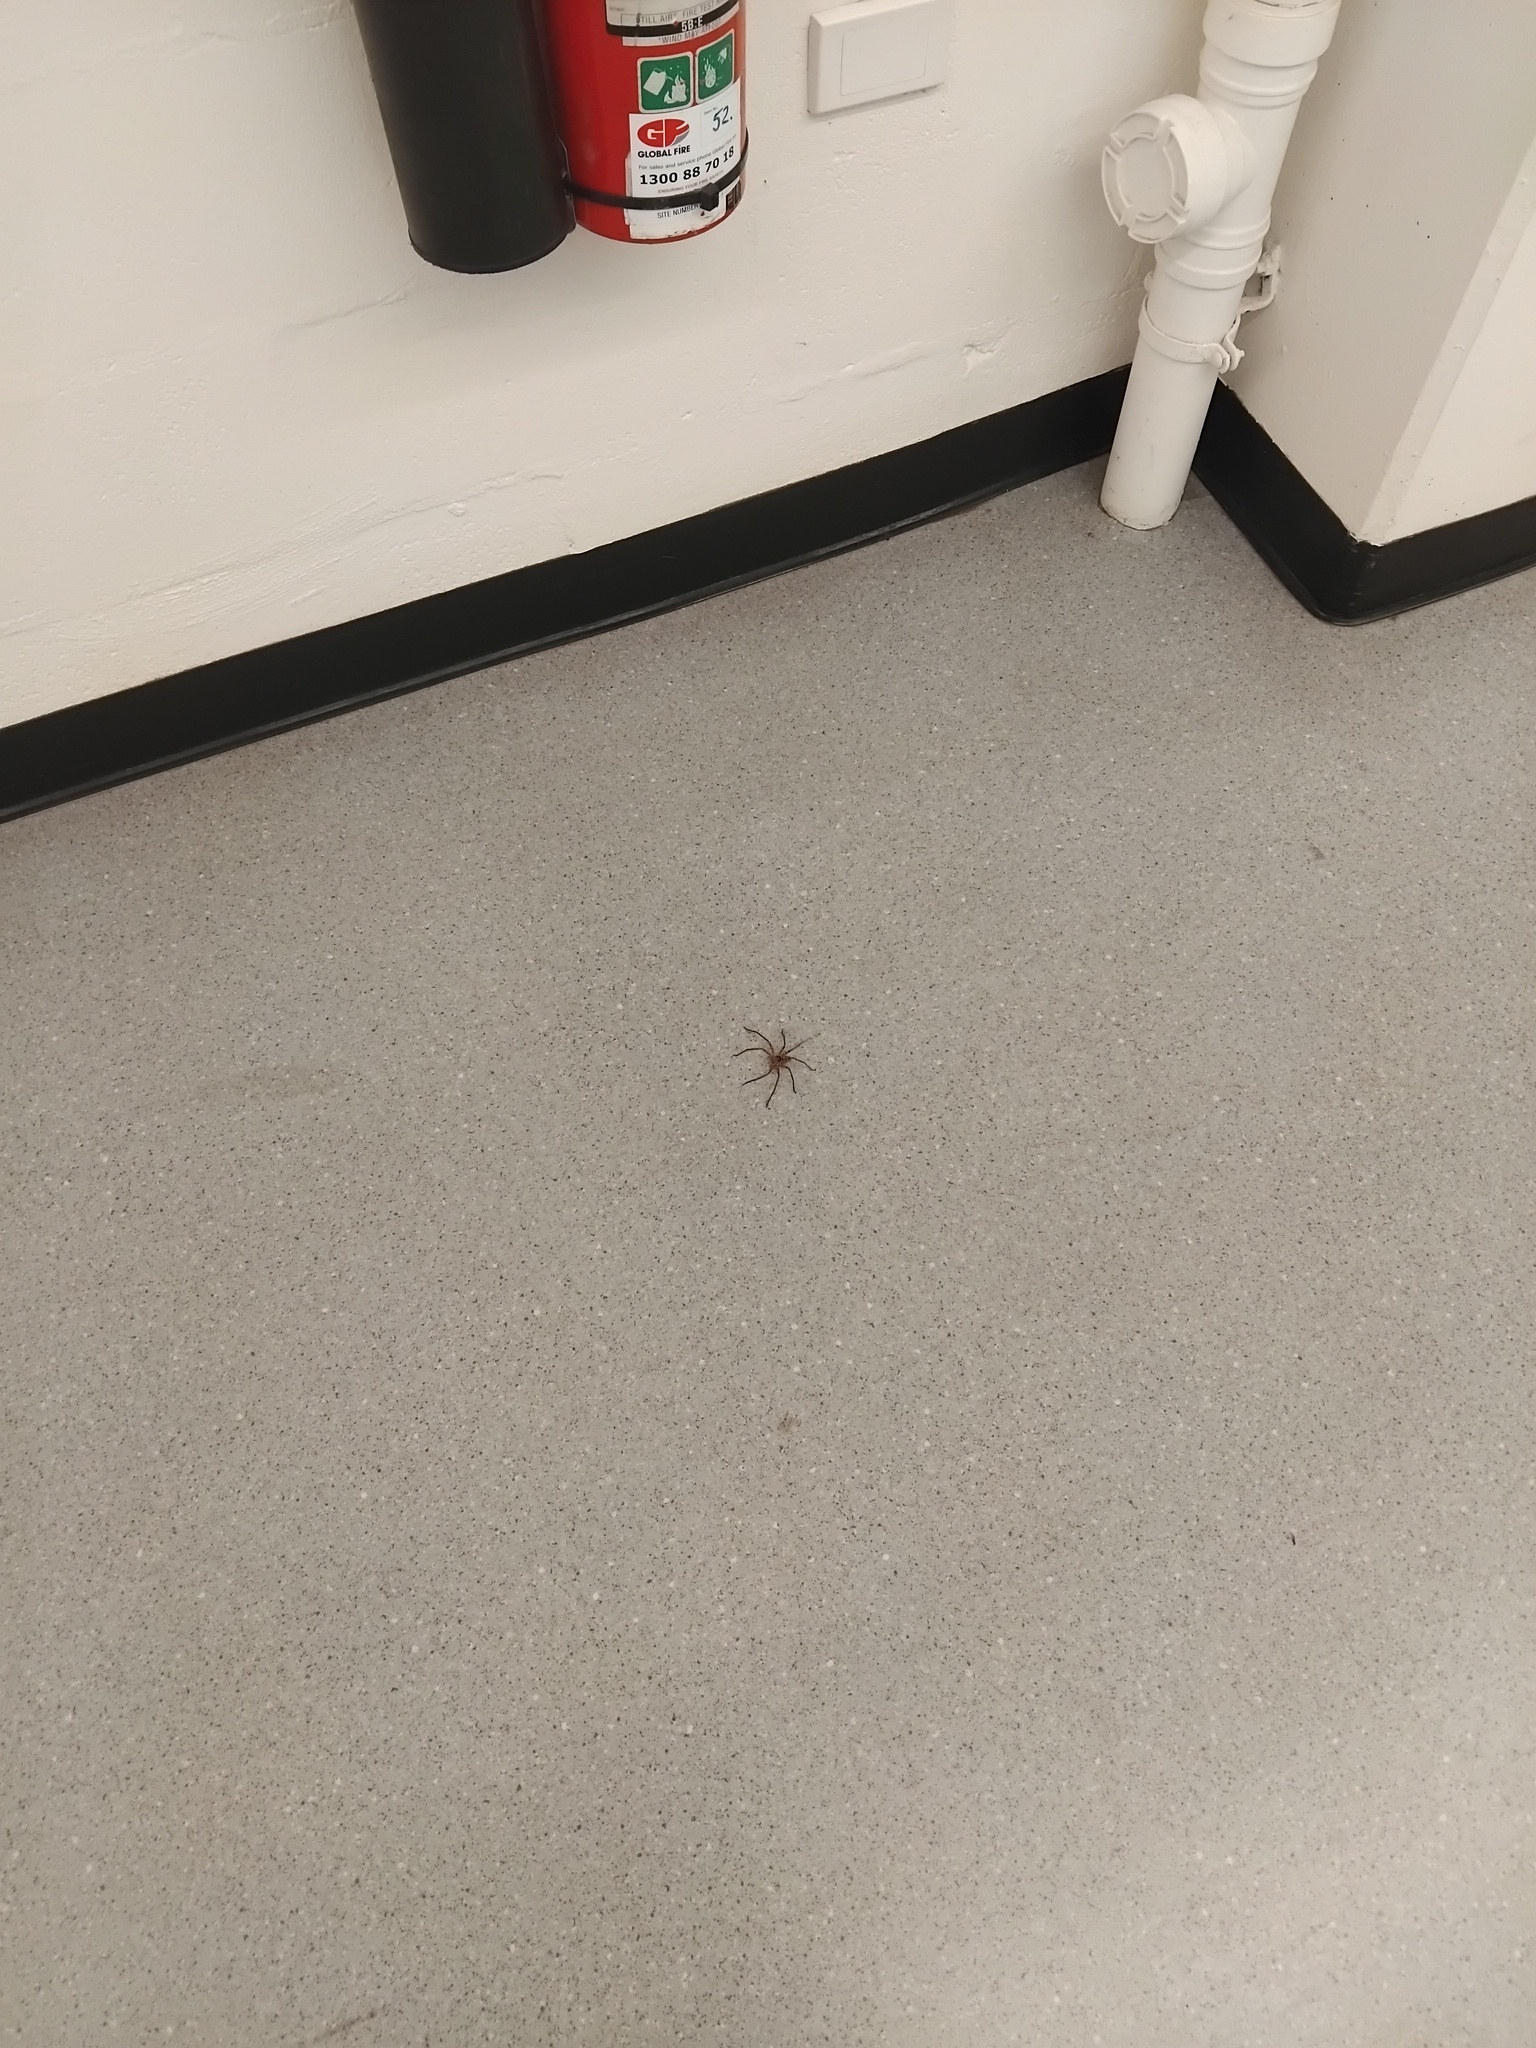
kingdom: Animalia
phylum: Arthropoda
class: Arachnida
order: Araneae
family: Sparassidae
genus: Heteropoda
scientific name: Heteropoda jugulans
